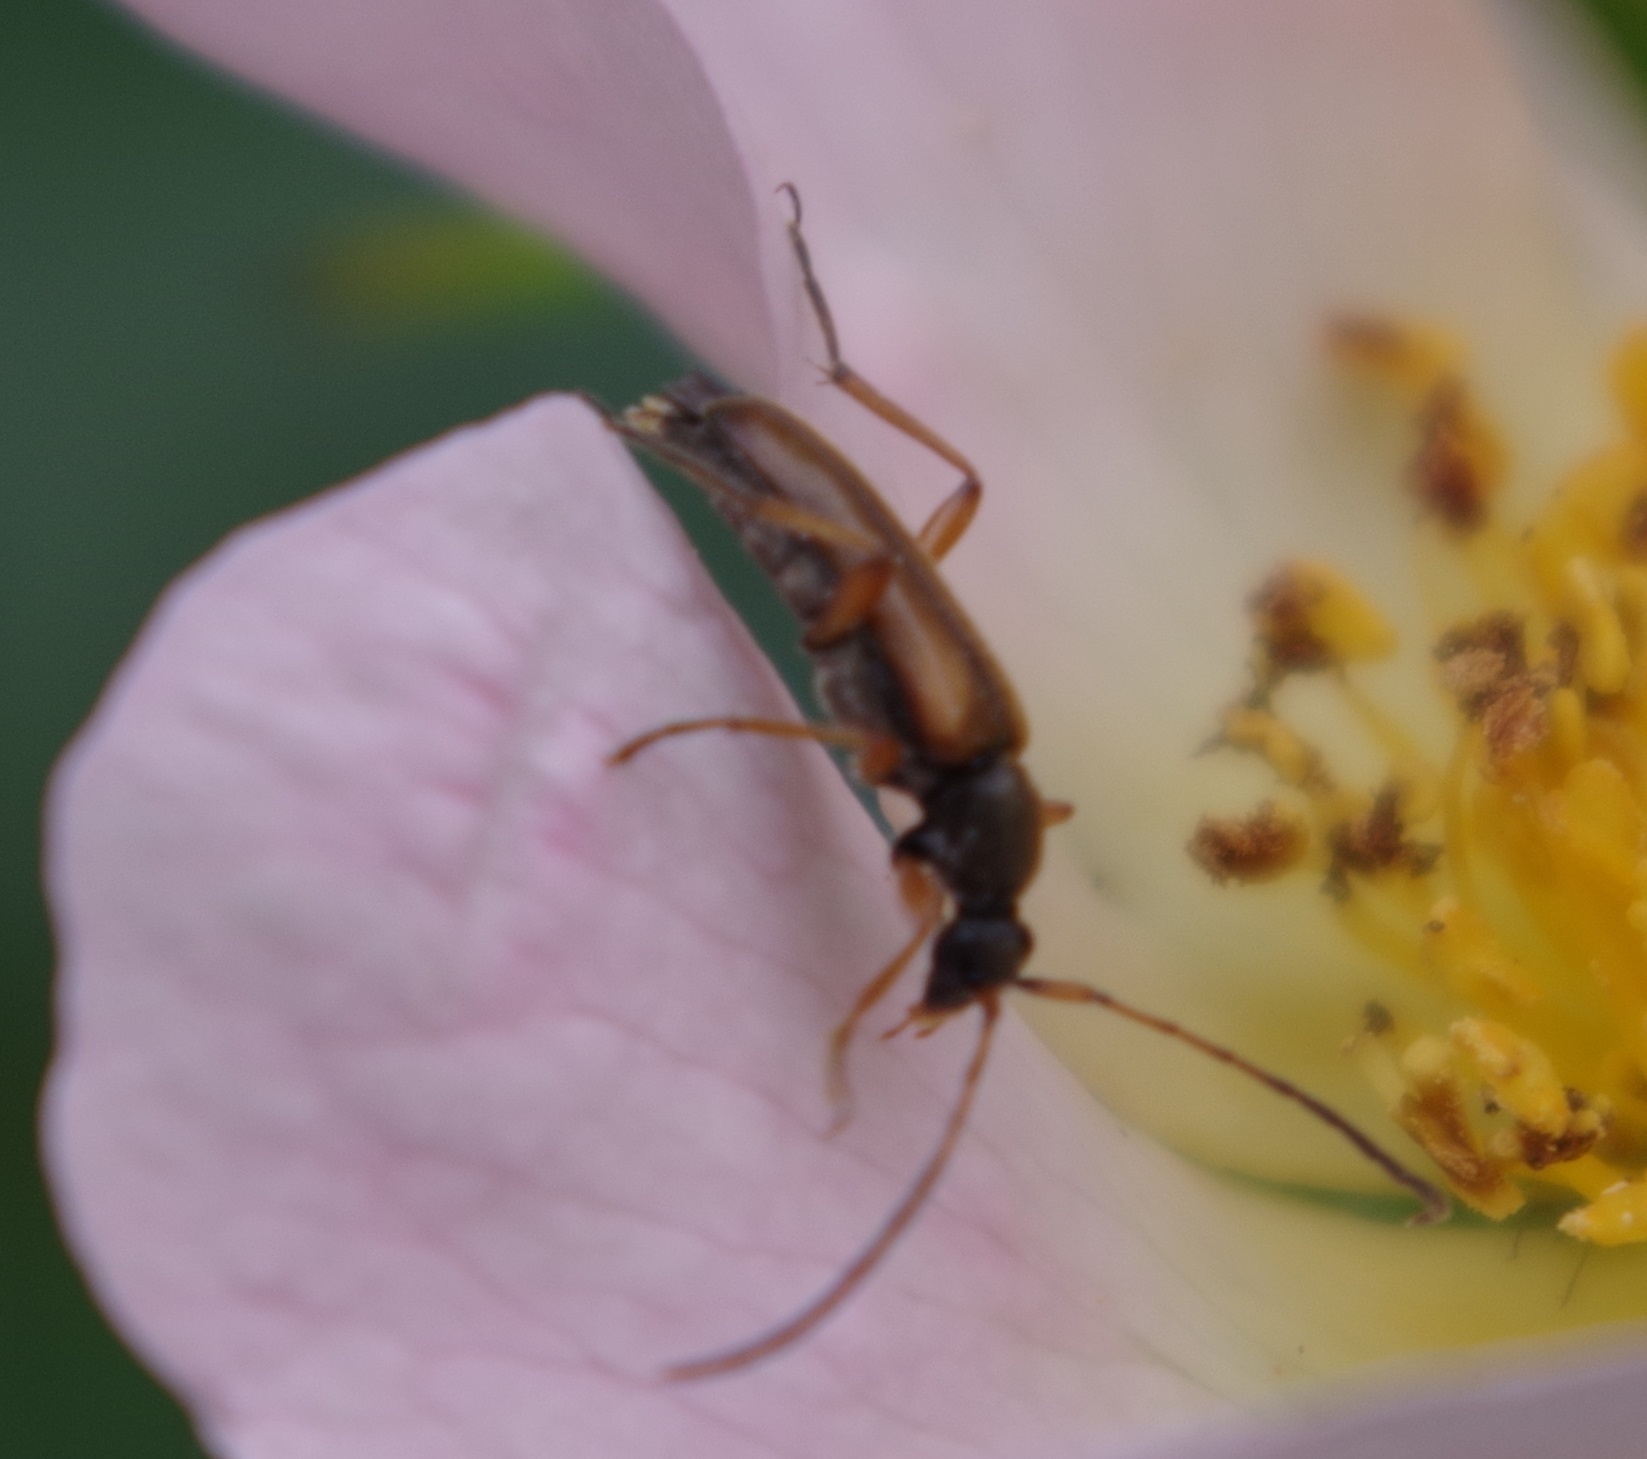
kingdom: Animalia
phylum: Arthropoda
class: Insecta
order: Coleoptera
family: Cerambycidae
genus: Alosterna
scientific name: Alosterna tabacicolor
